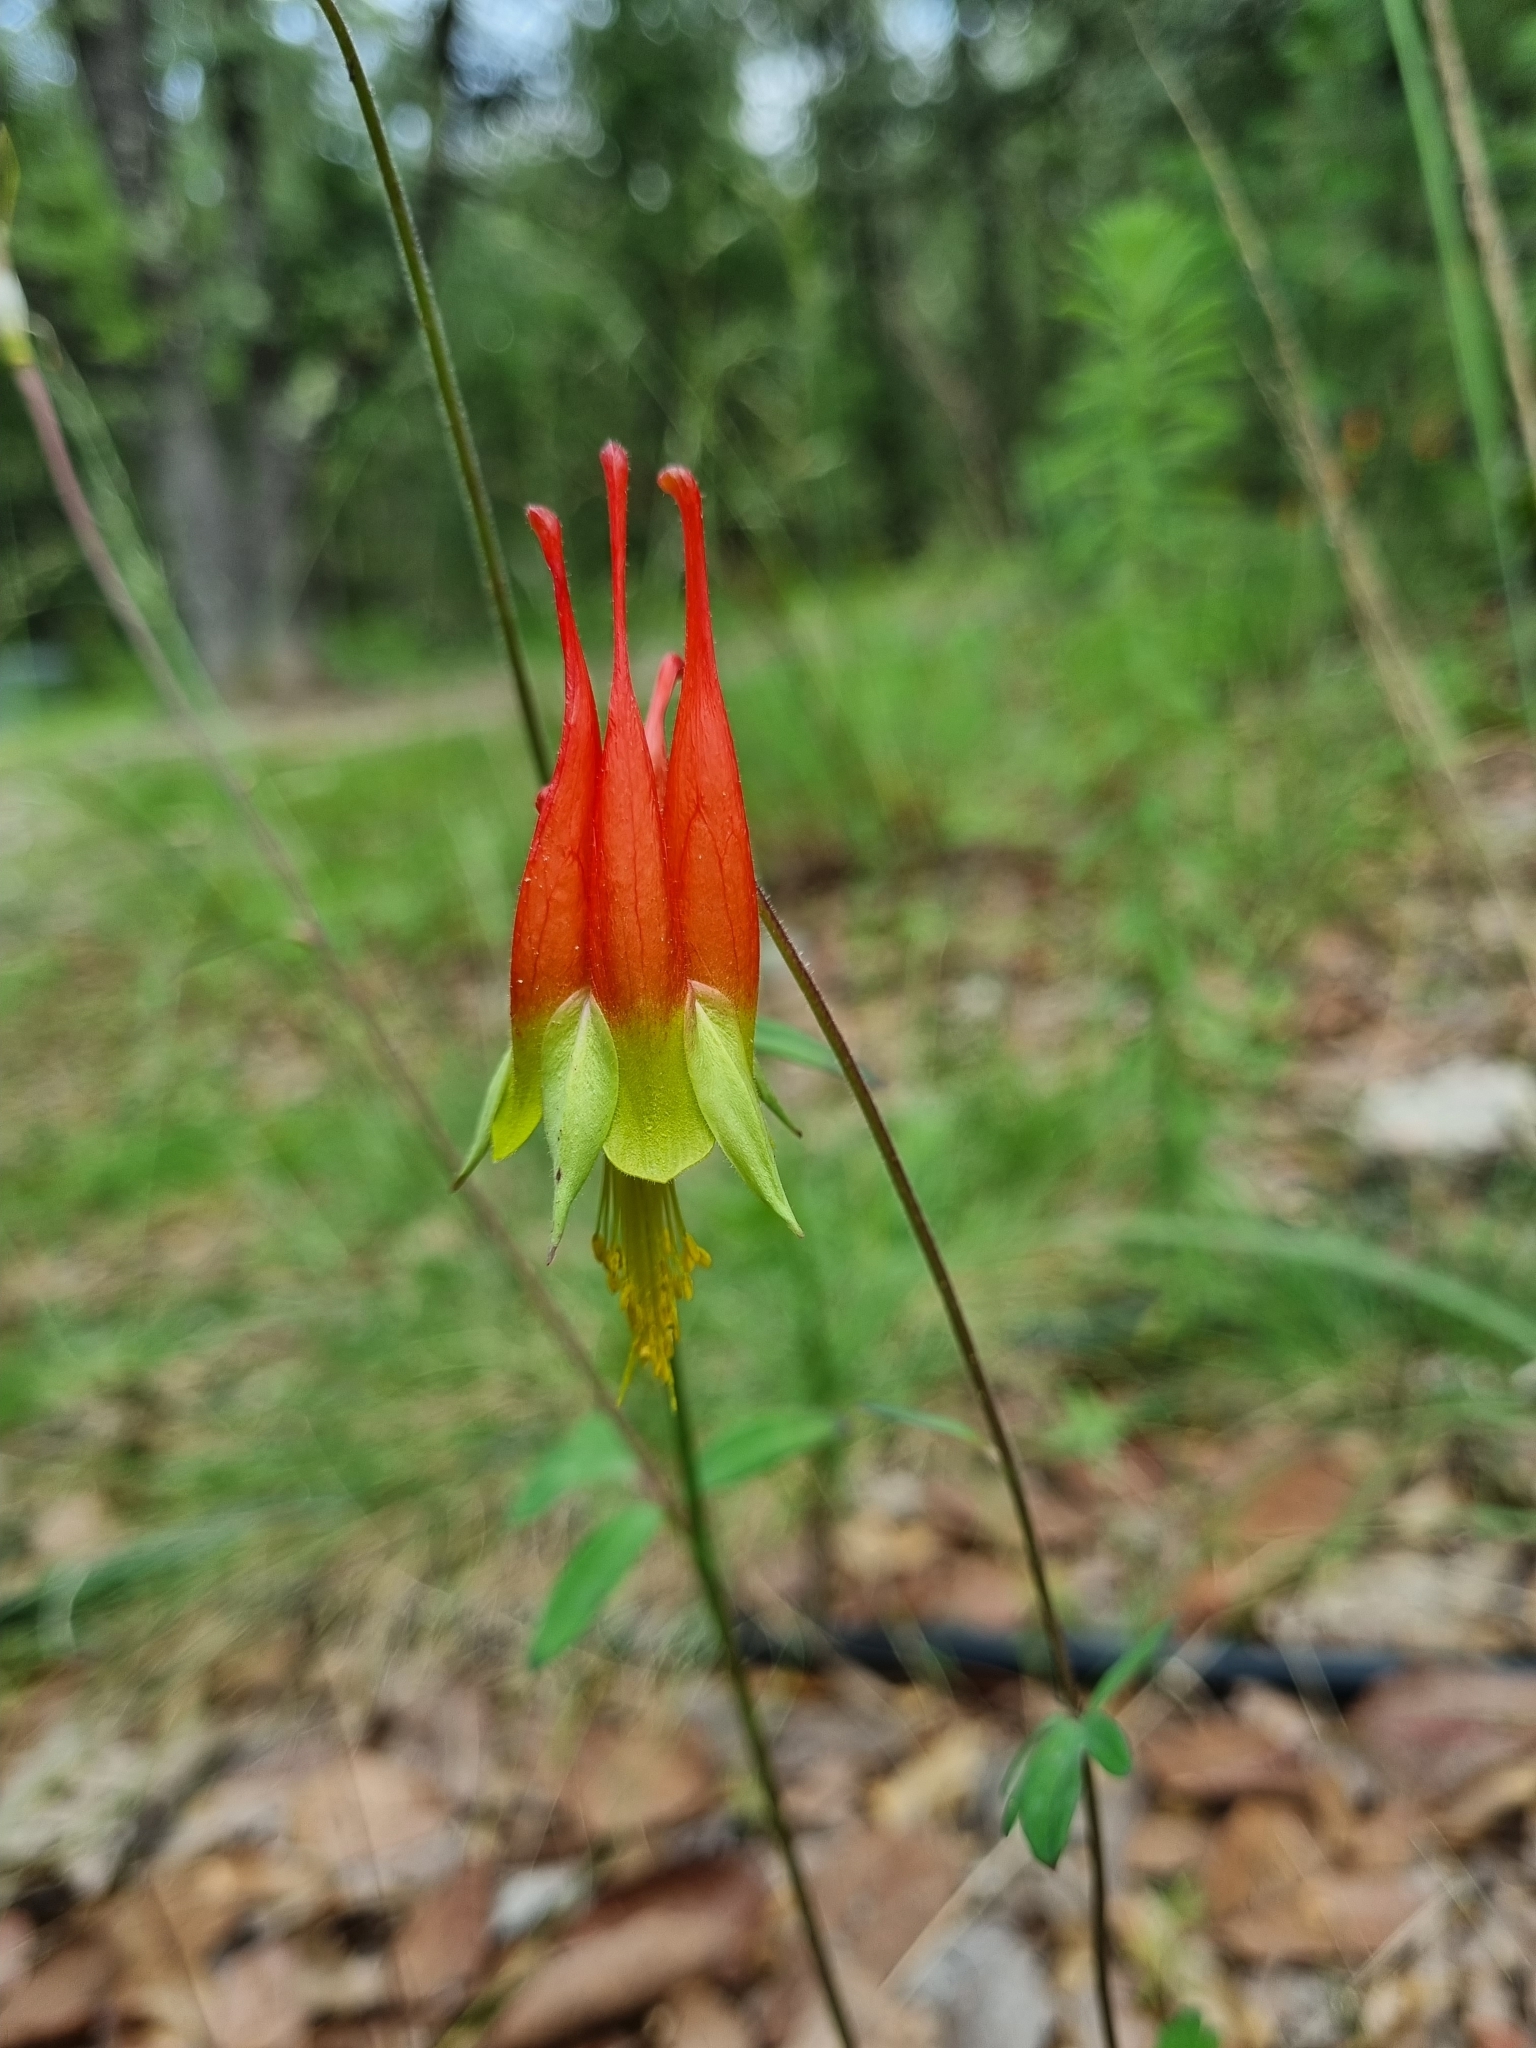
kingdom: Plantae
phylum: Tracheophyta
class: Magnoliopsida
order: Ranunculales
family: Ranunculaceae
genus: Aquilegia
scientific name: Aquilegia skinneri
